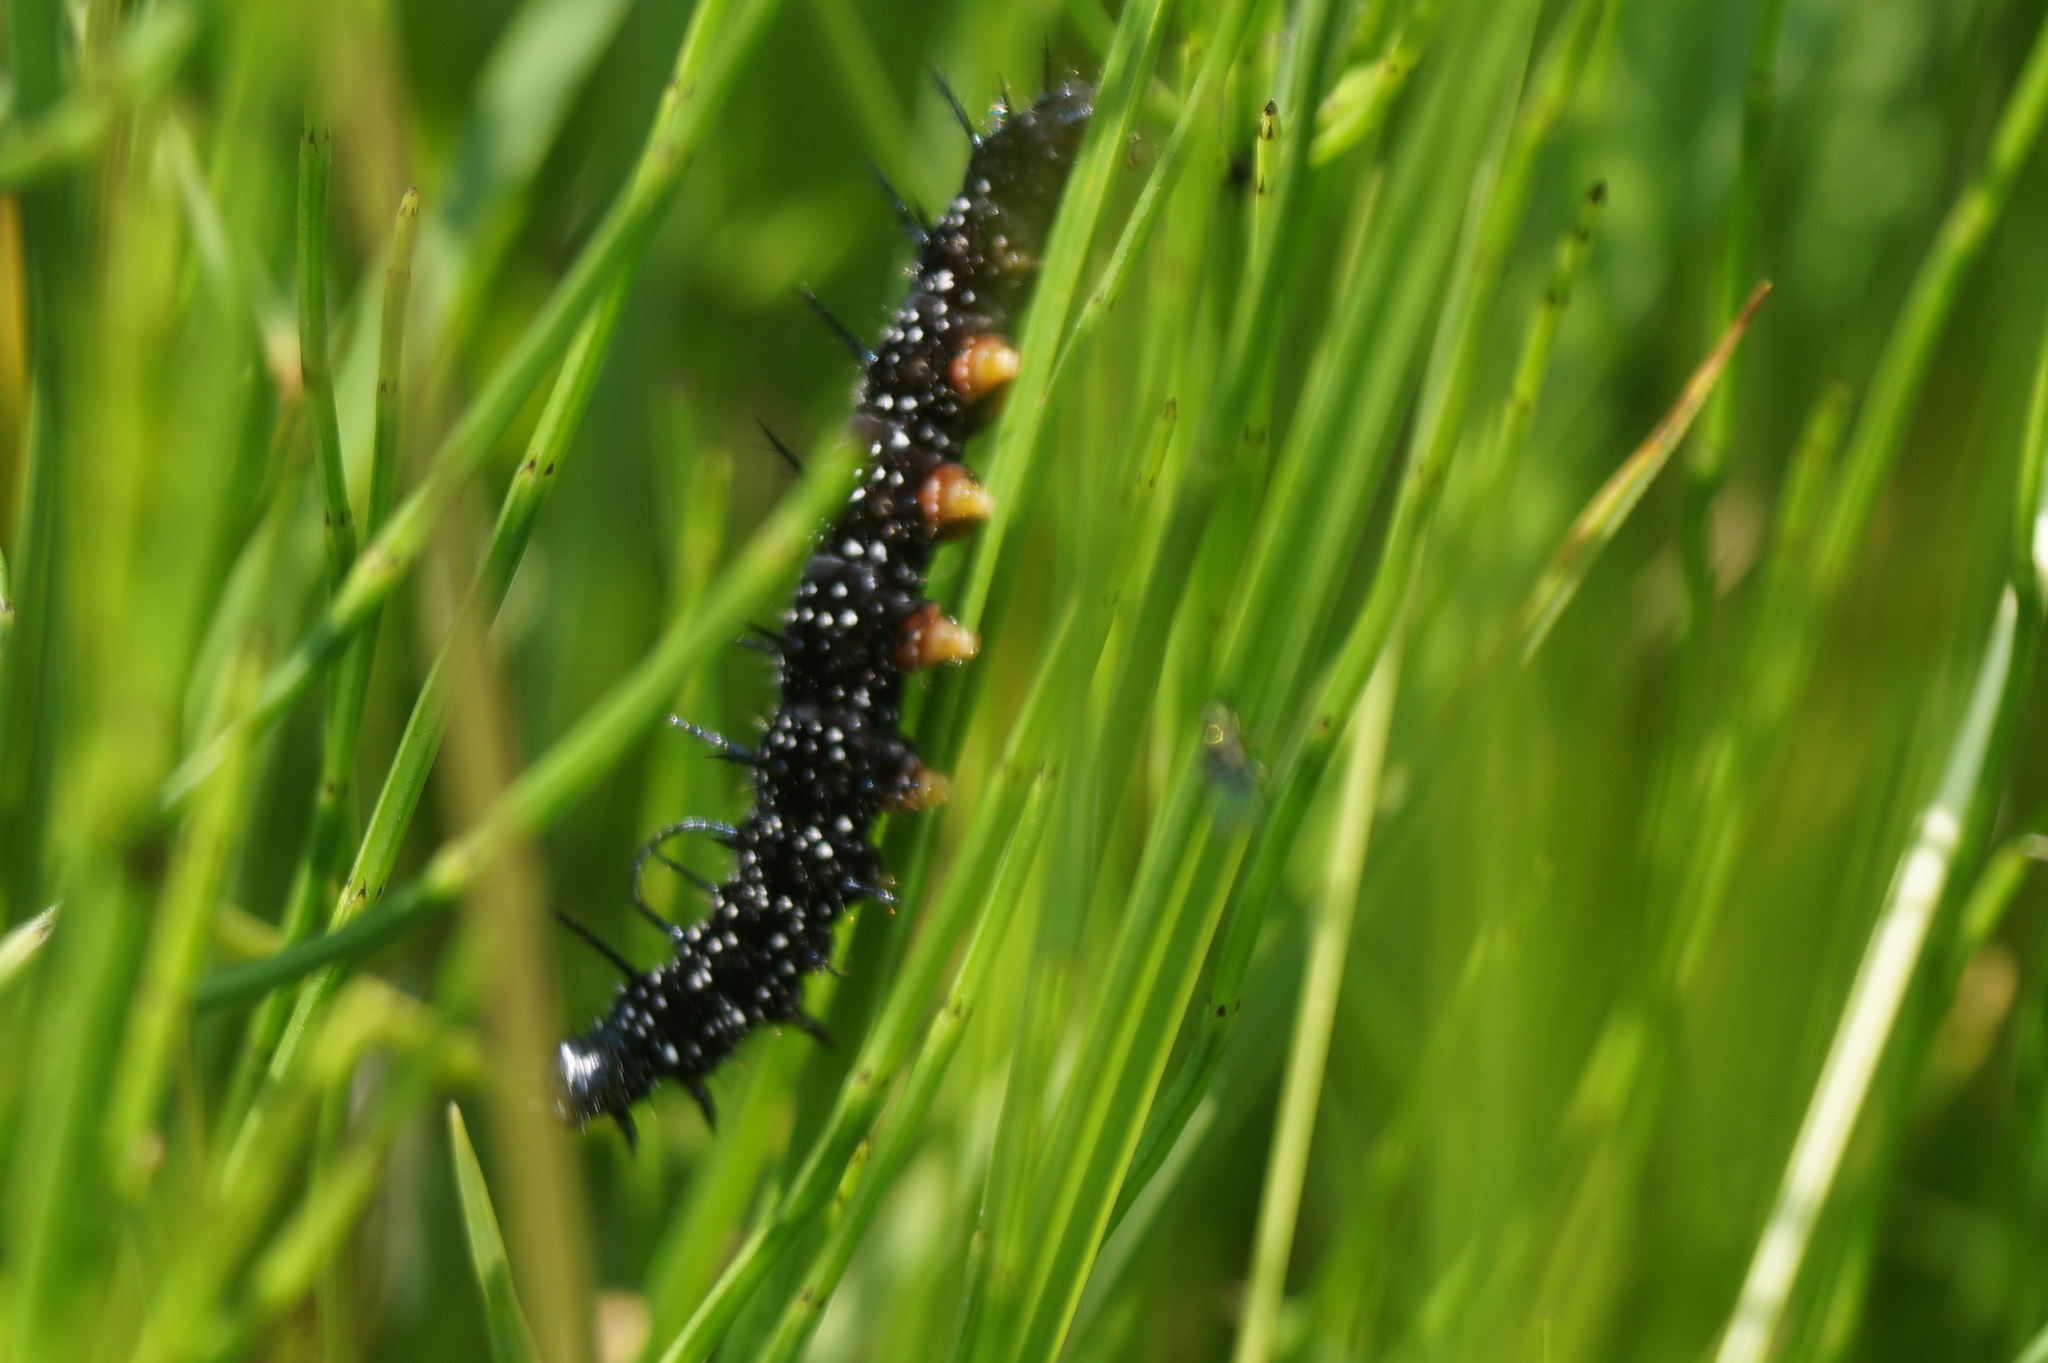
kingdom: Animalia
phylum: Arthropoda
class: Insecta
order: Lepidoptera
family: Nymphalidae
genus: Aglais
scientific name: Aglais io
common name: Peacock
